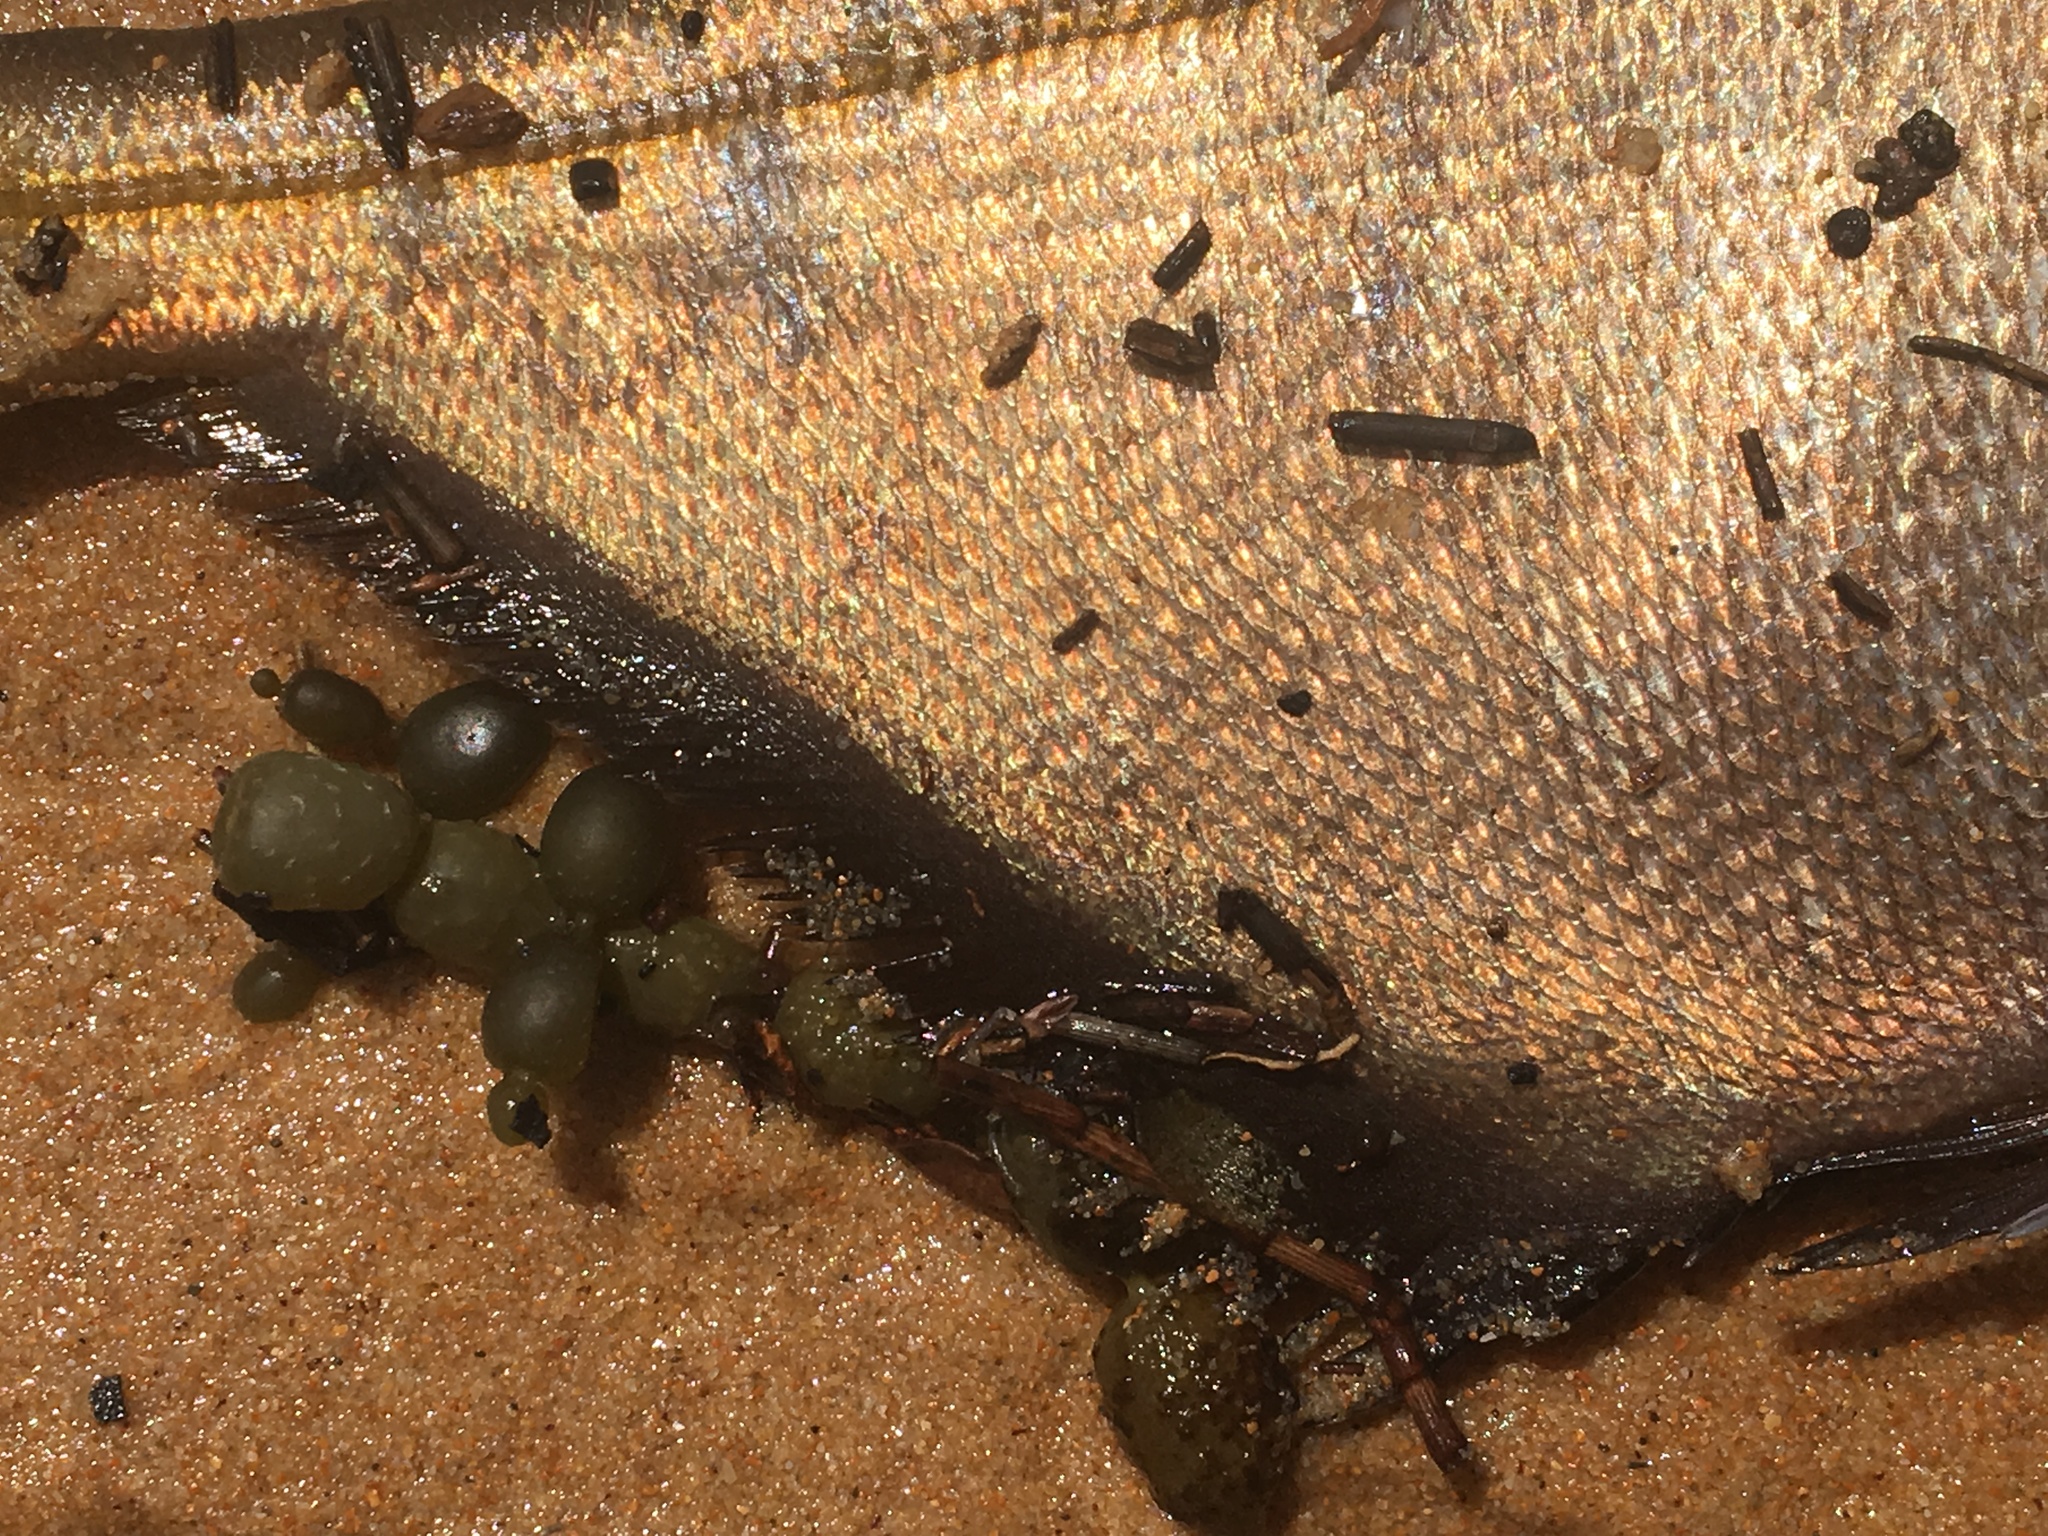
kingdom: Animalia
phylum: Chordata
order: Perciformes
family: Pempheridae
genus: Pempheris
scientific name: Pempheris compressa
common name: Bulleye
